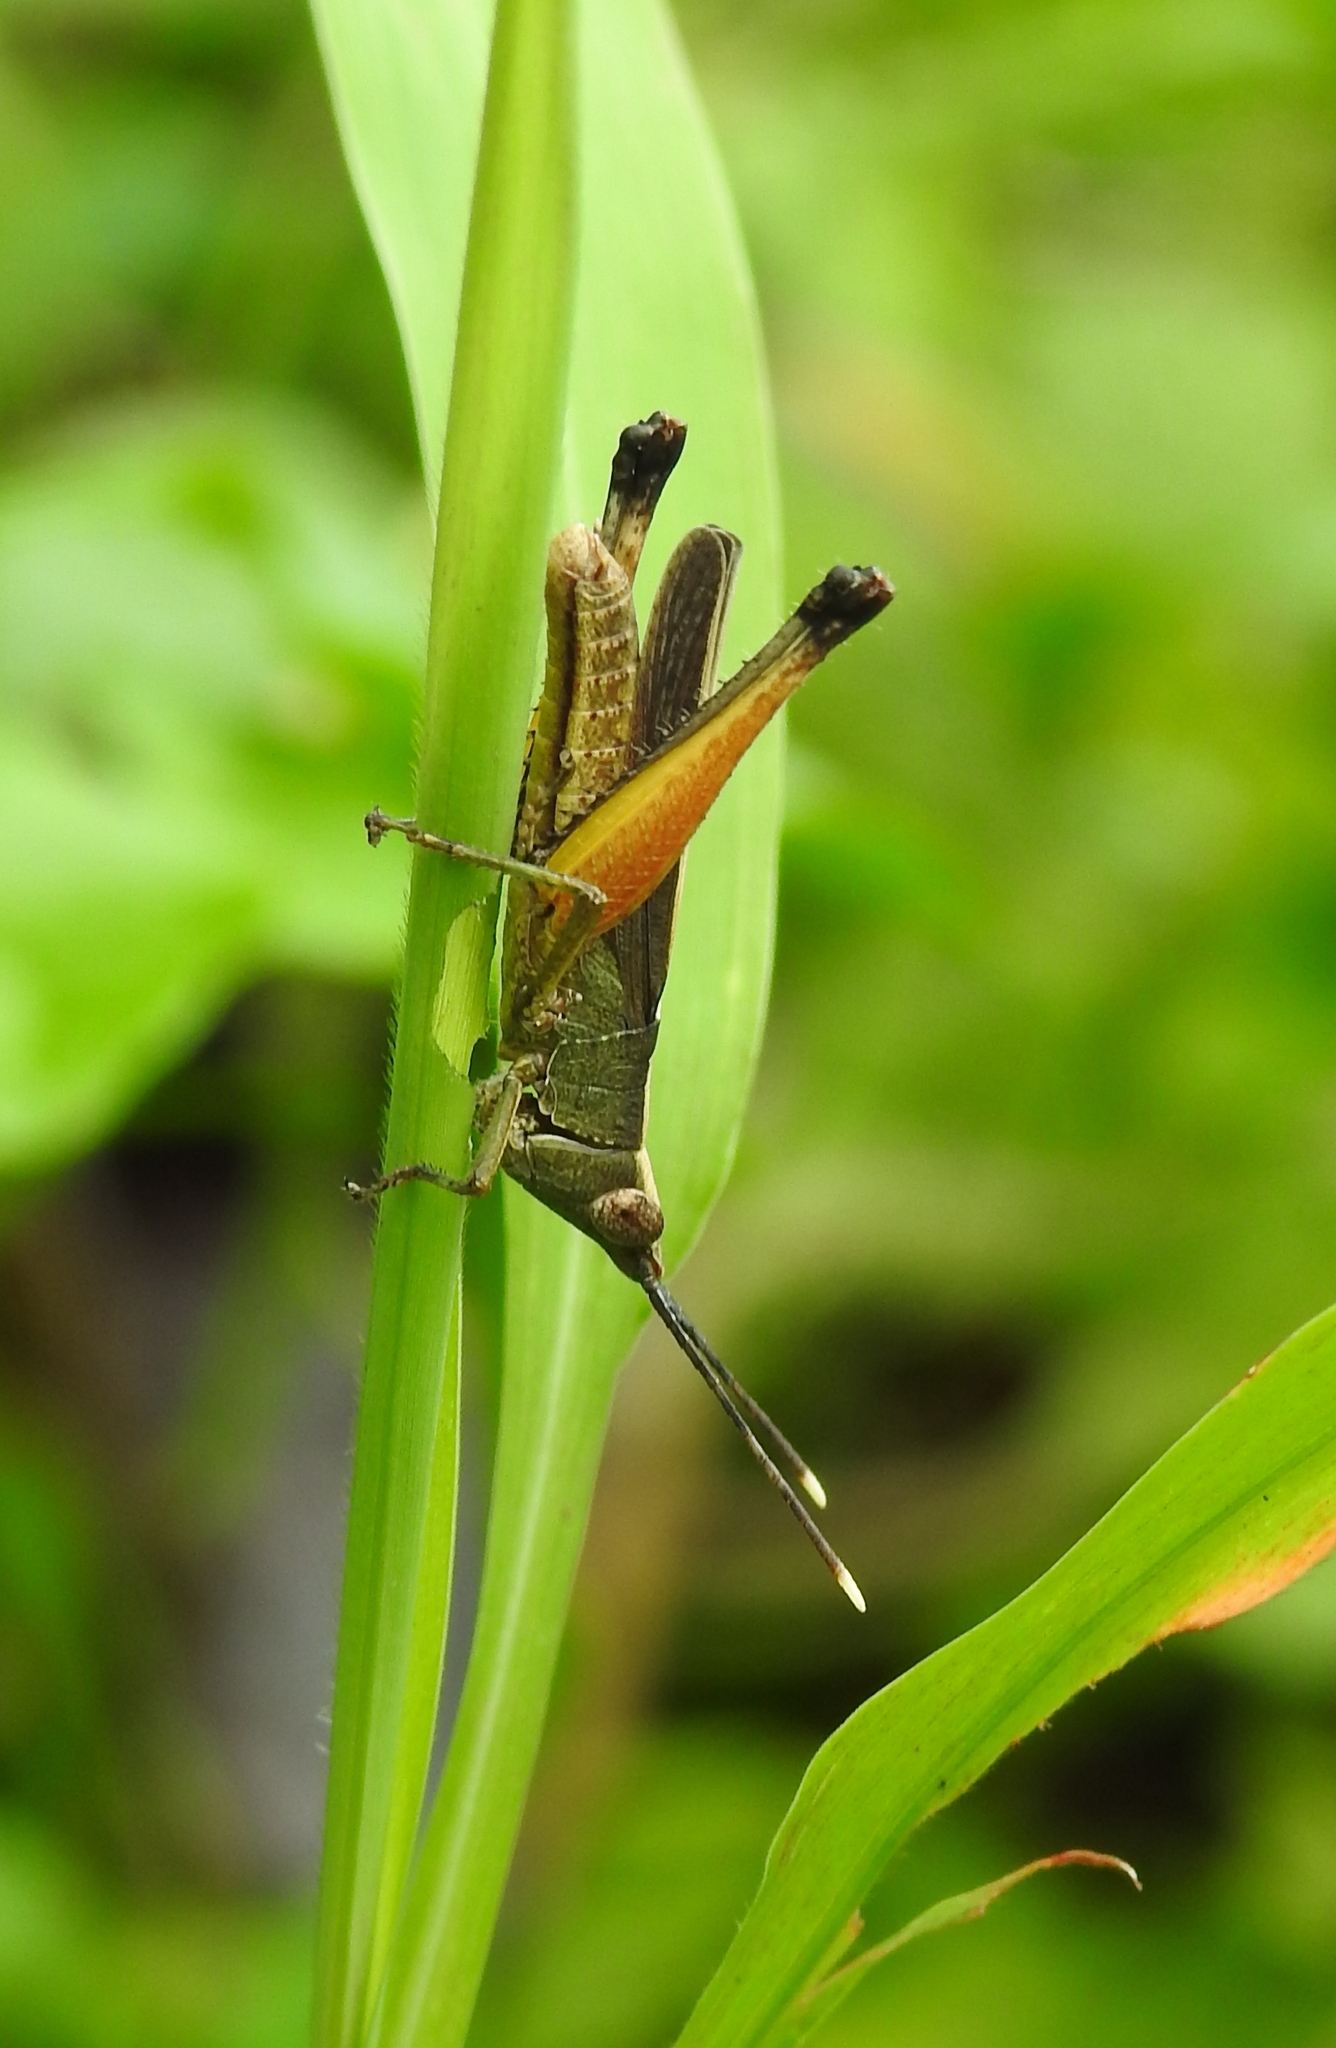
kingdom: Animalia
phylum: Arthropoda
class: Insecta
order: Orthoptera
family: Acrididae
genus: Phlaeoba
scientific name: Phlaeoba antennata
